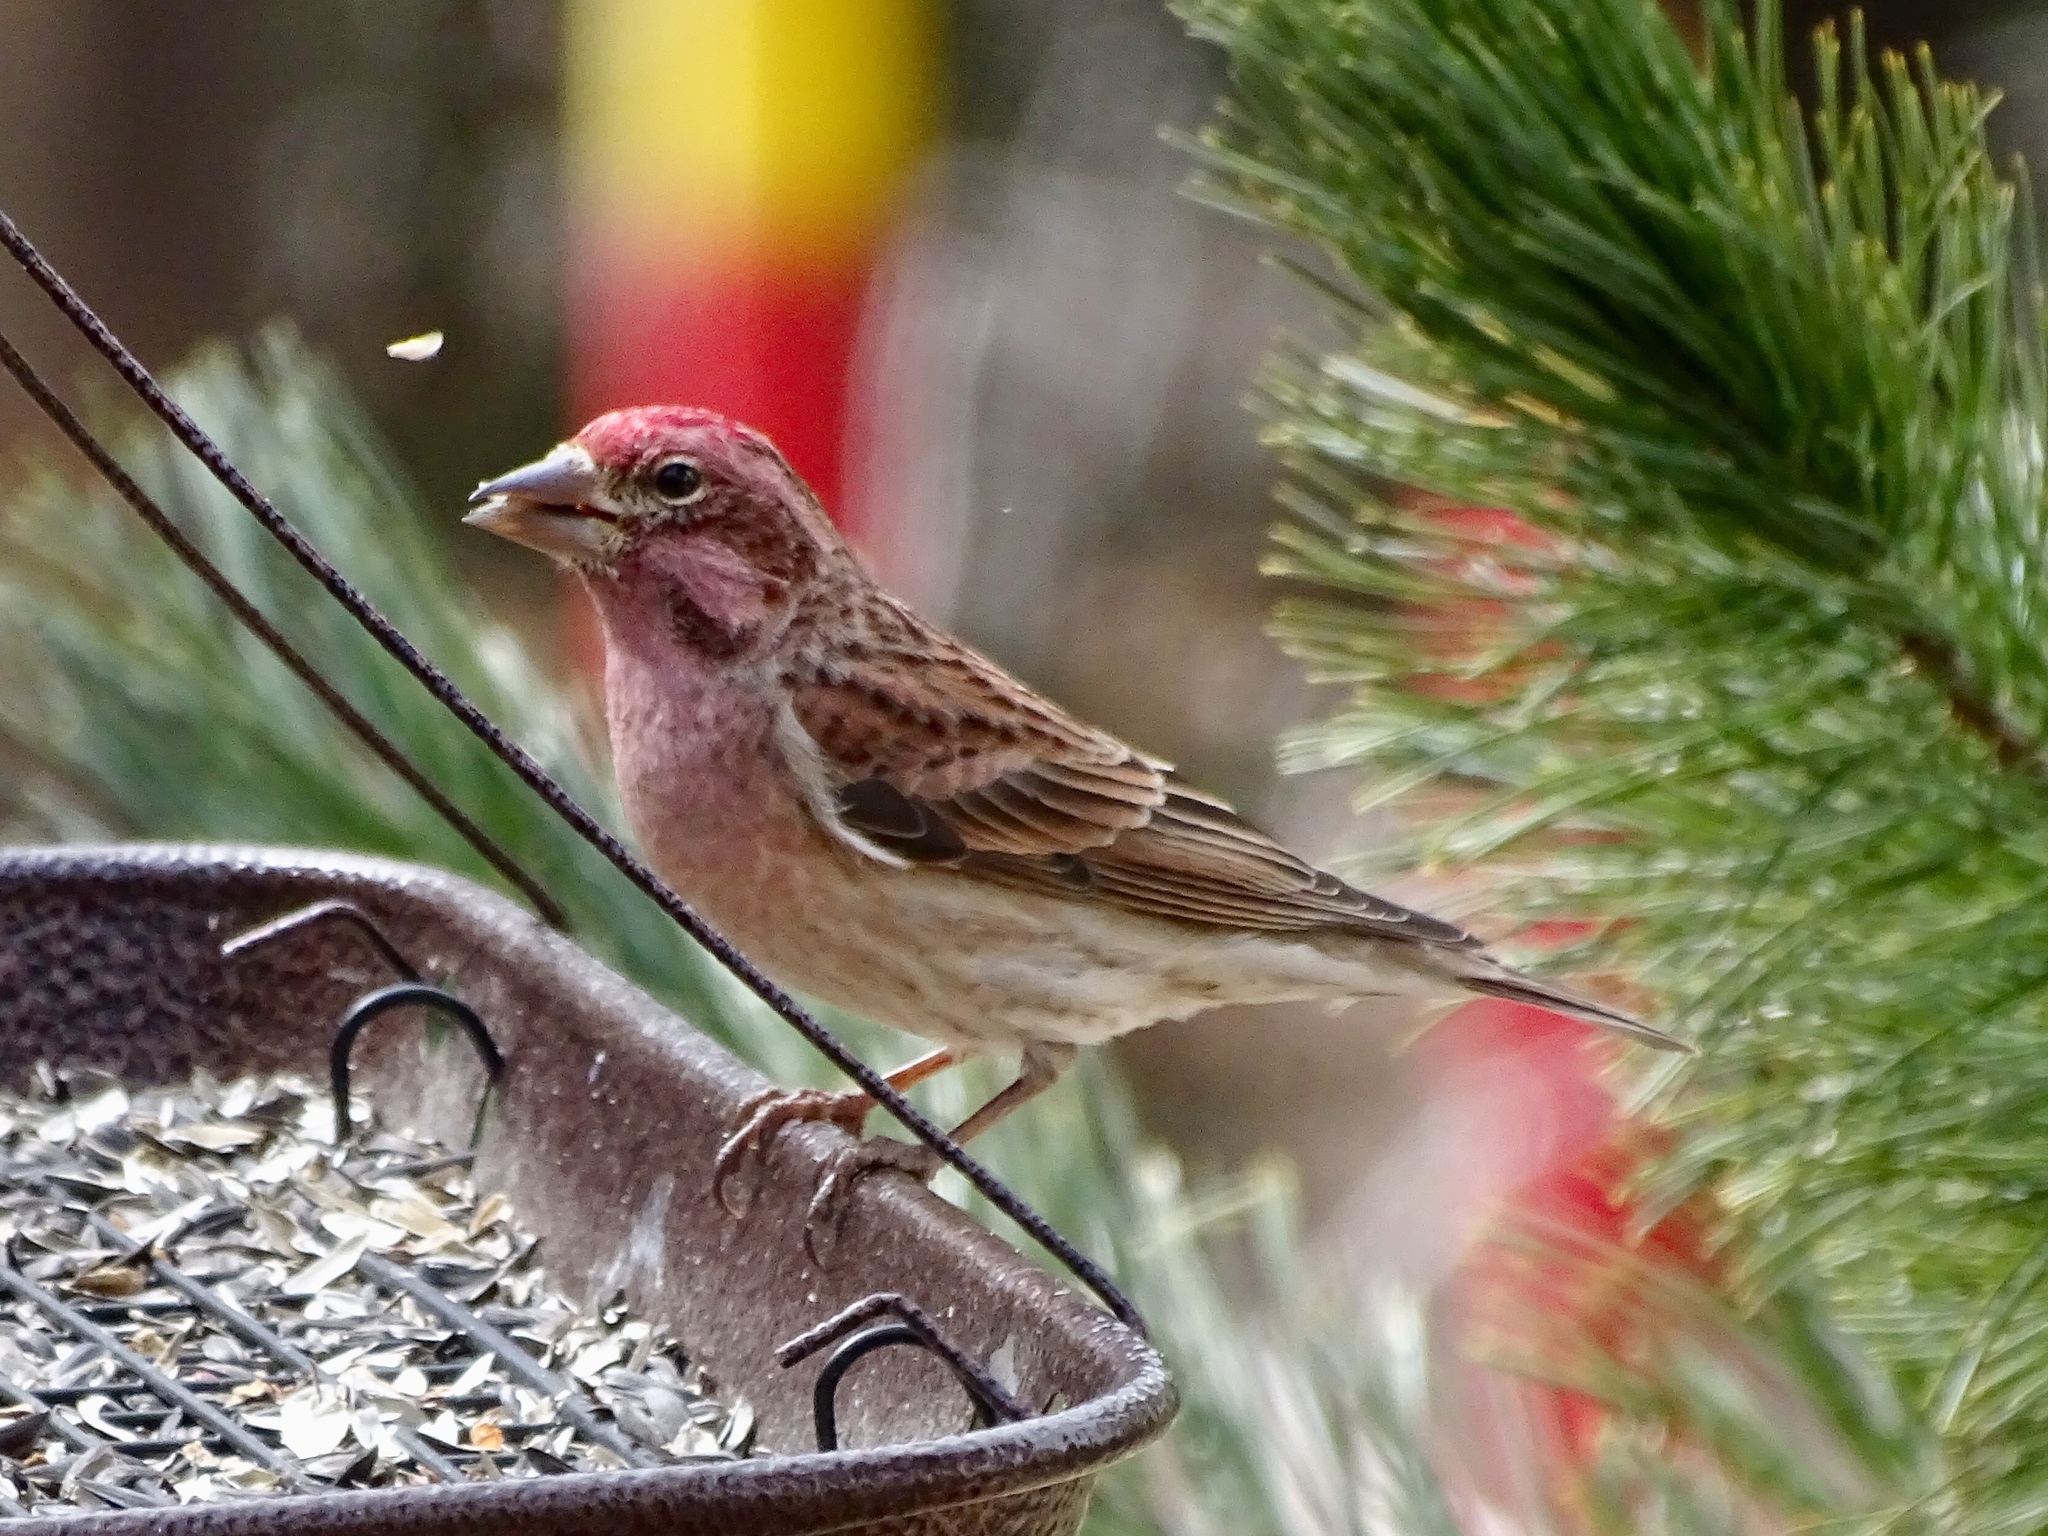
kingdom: Animalia
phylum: Chordata
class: Aves
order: Passeriformes
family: Fringillidae
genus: Haemorhous
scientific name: Haemorhous cassinii
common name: Cassin's finch
